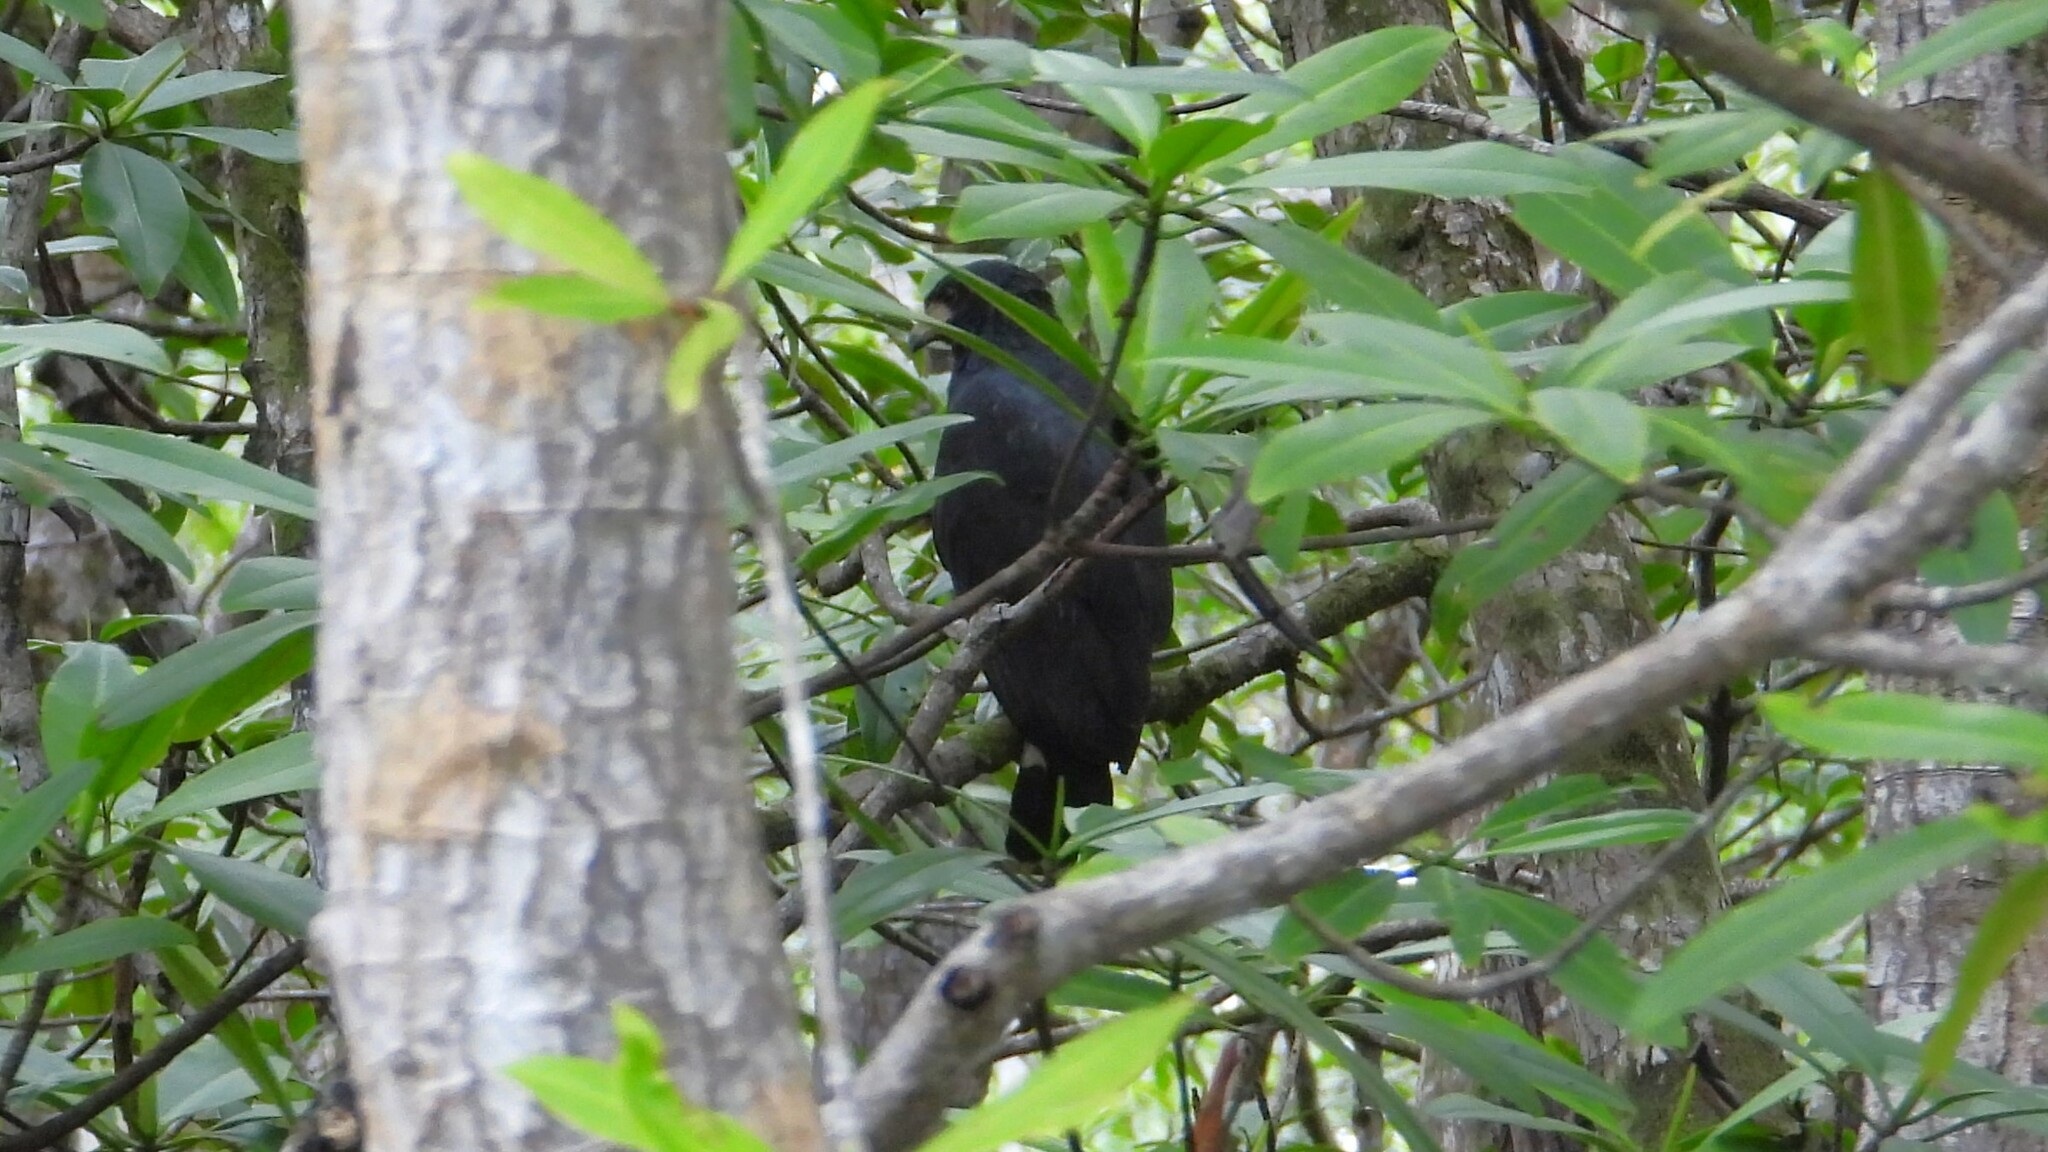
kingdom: Animalia
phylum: Chordata
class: Aves
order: Accipitriformes
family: Accipitridae
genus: Buteogallus
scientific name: Buteogallus anthracinus
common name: Common black hawk
